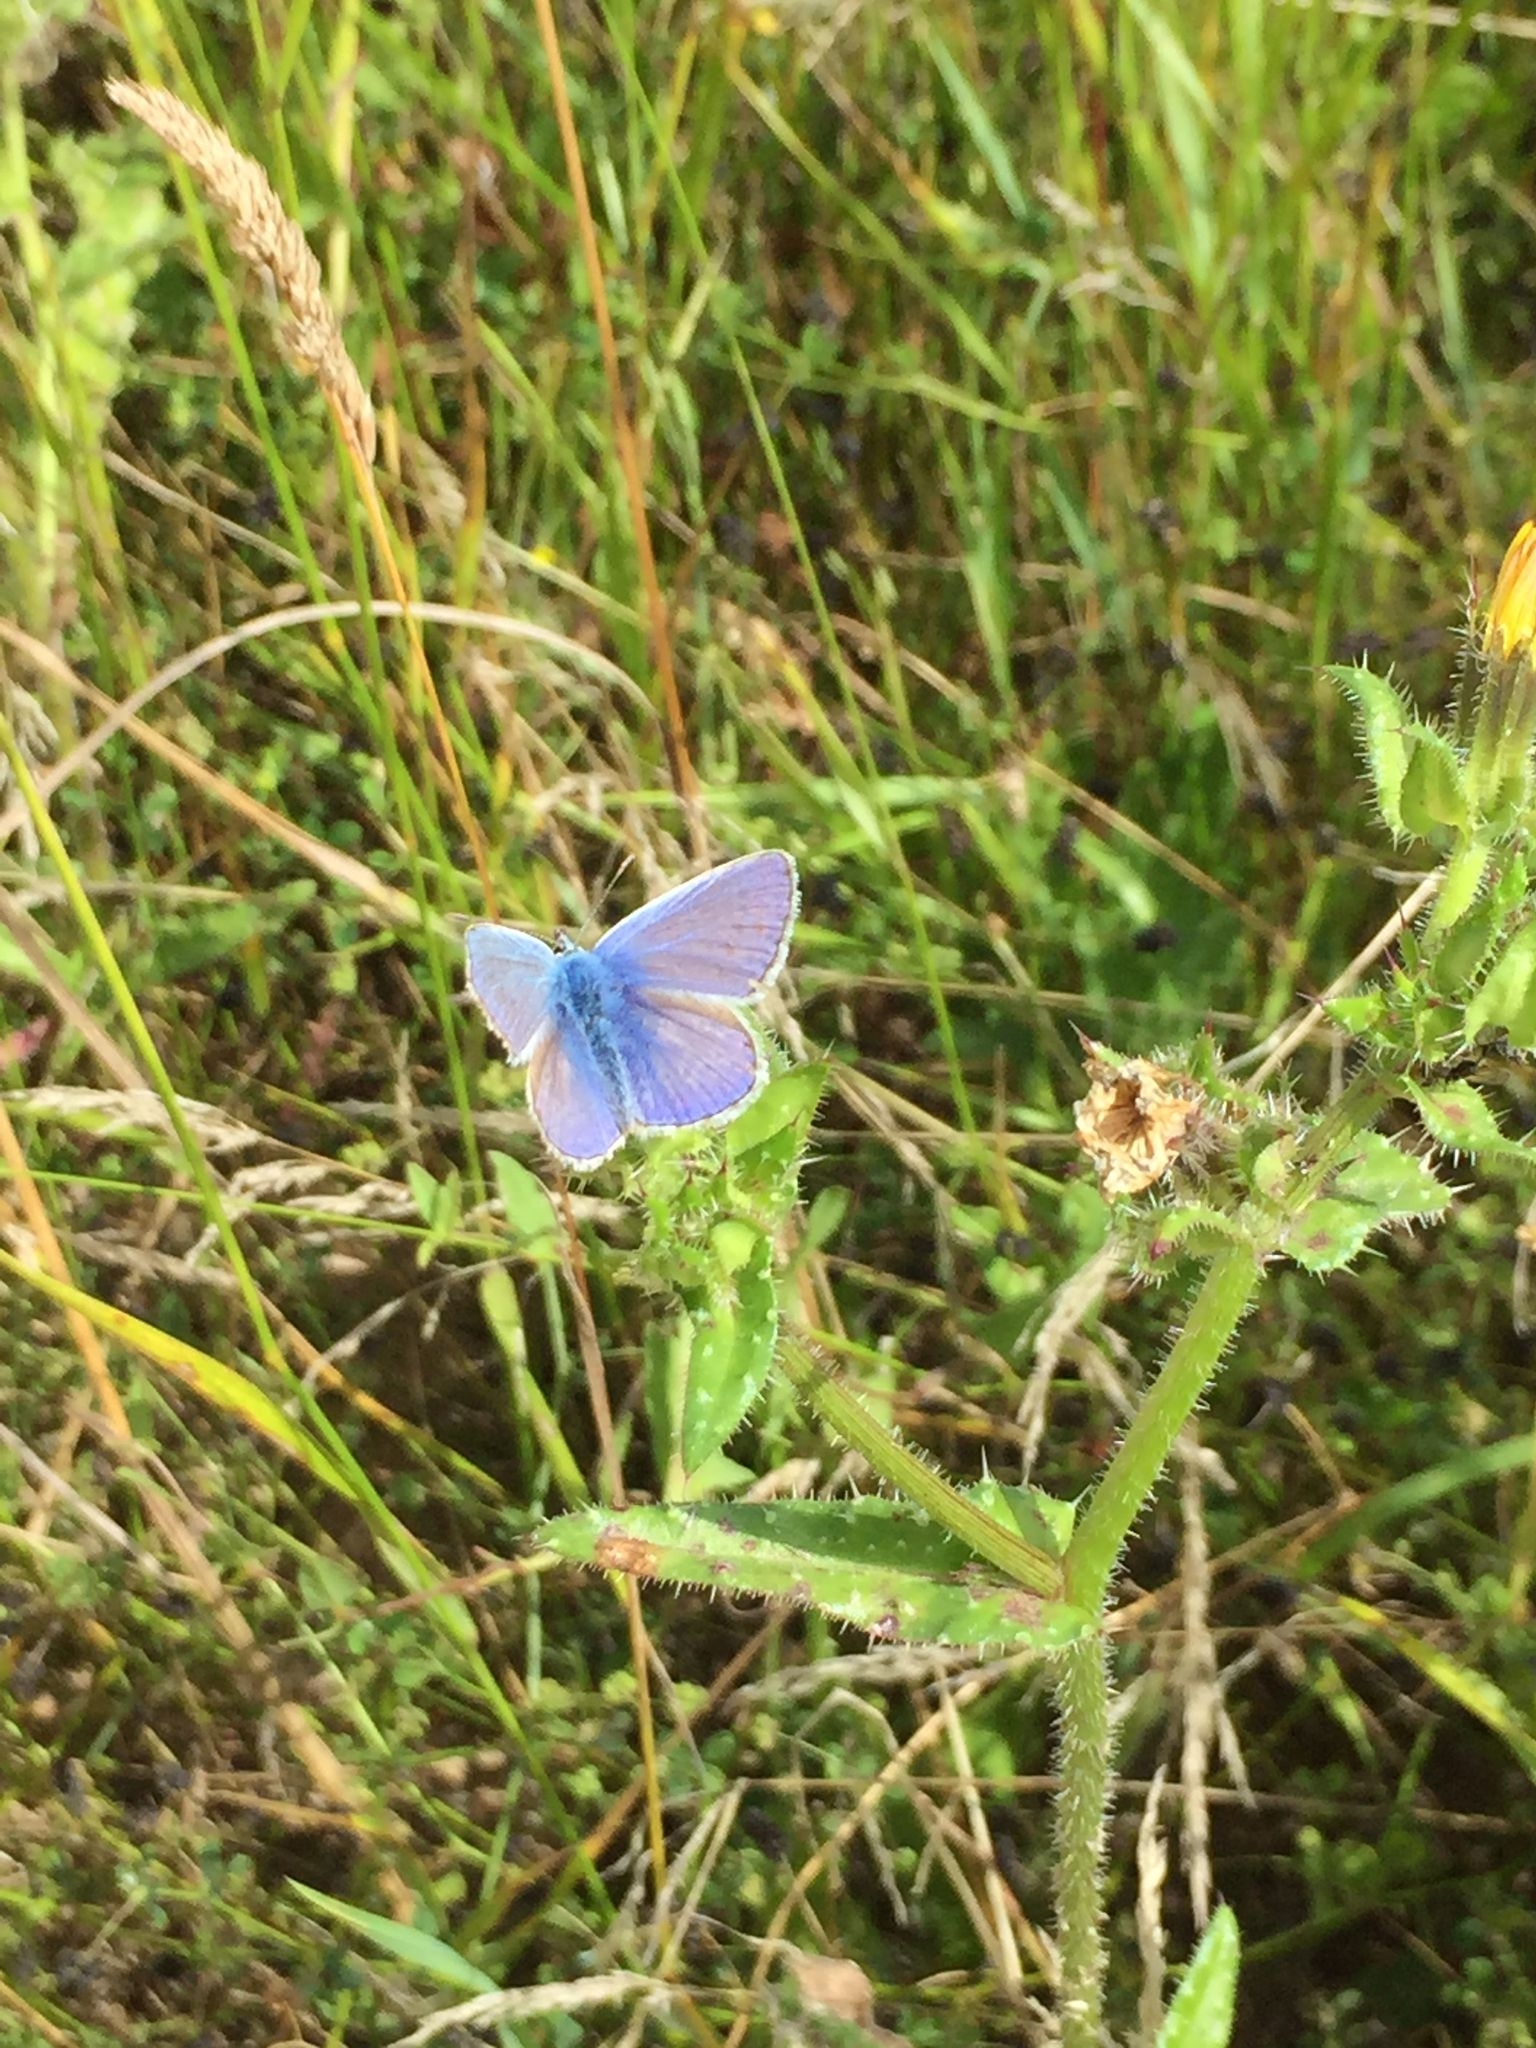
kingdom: Animalia
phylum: Arthropoda
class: Insecta
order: Lepidoptera
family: Lycaenidae
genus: Polyommatus
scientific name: Polyommatus icarus
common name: Common blue
